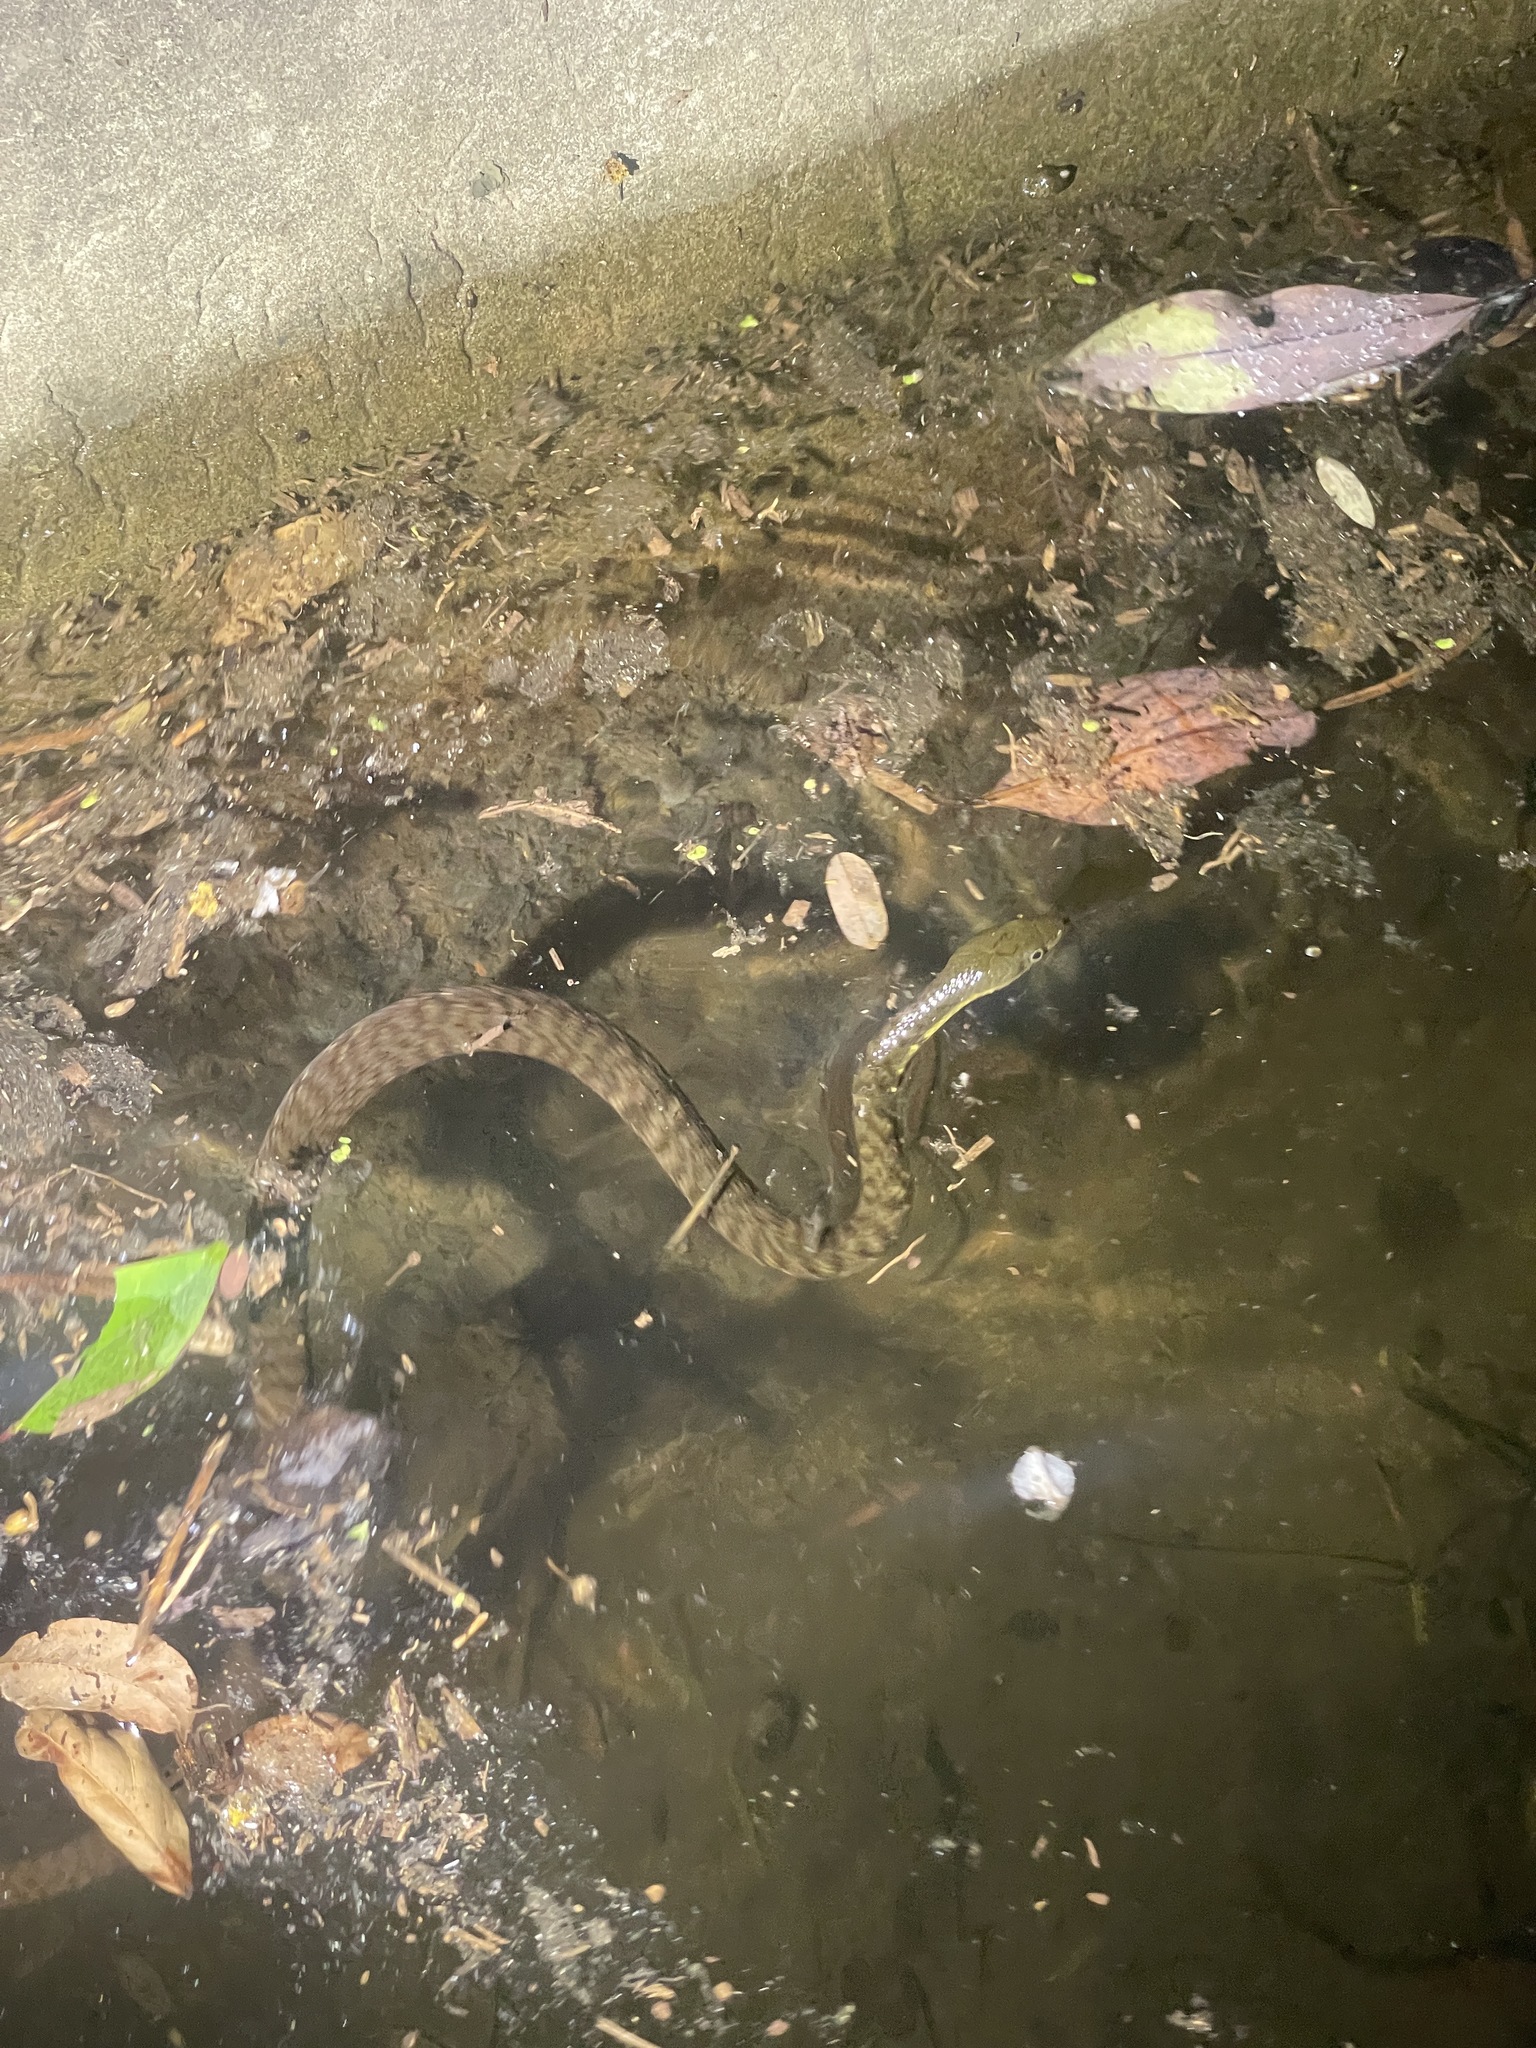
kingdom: Animalia
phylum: Chordata
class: Squamata
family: Colubridae
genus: Trimerodytes
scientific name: Trimerodytes percarinatus
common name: Eastern water snake
